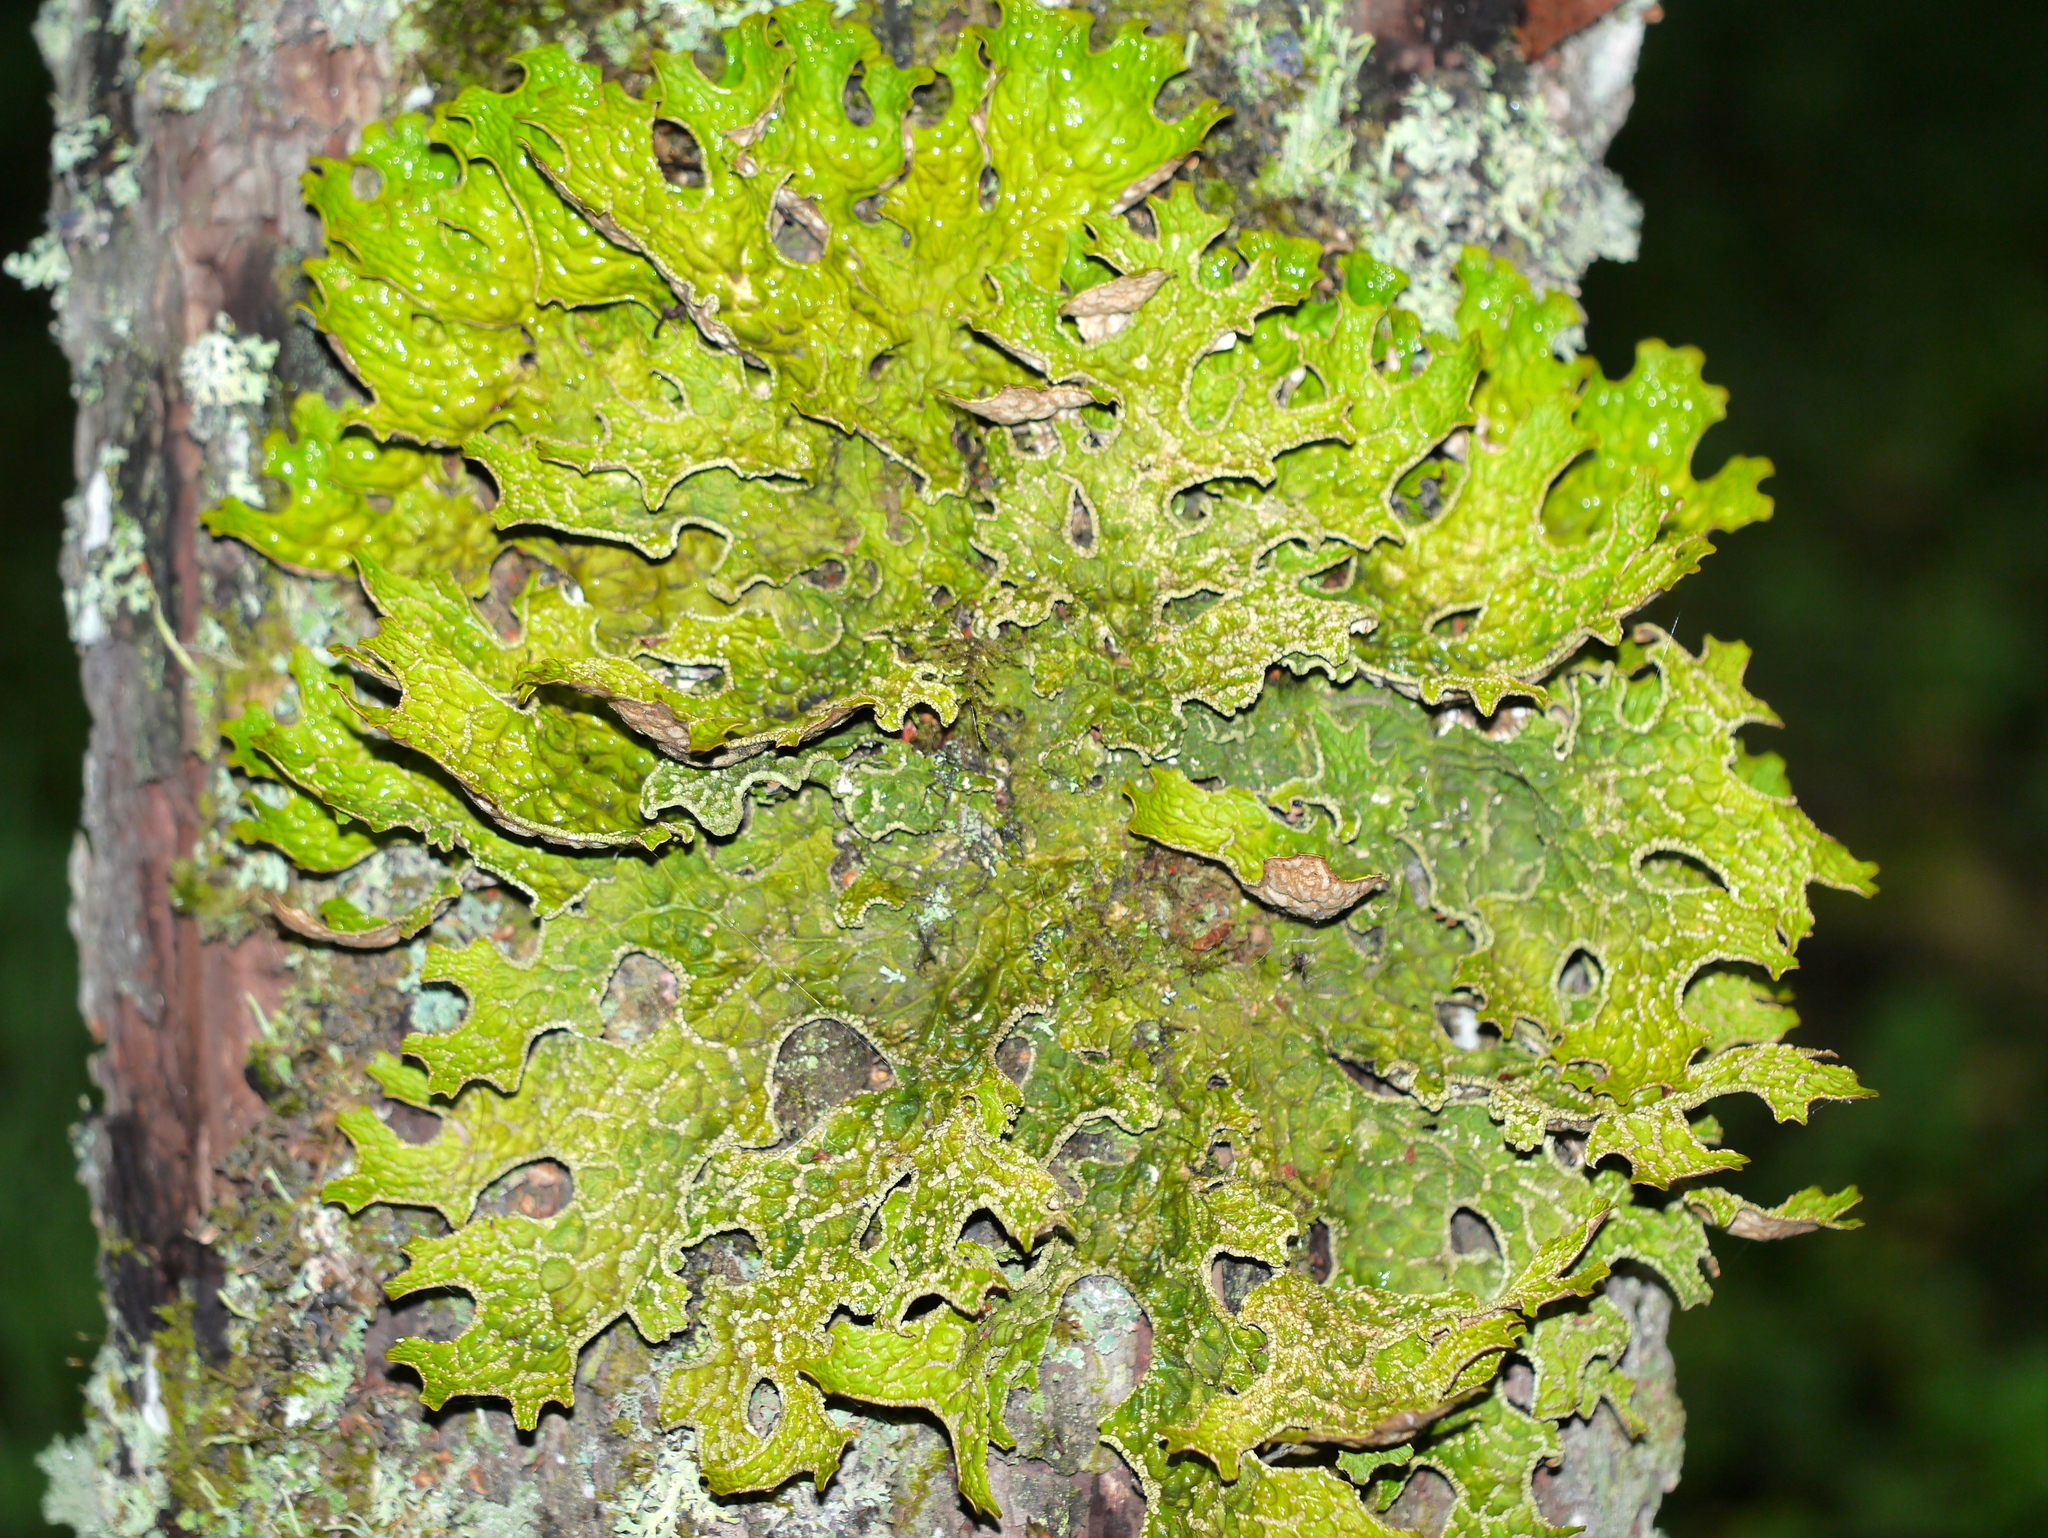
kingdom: Fungi
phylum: Ascomycota
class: Lecanoromycetes
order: Peltigerales
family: Lobariaceae
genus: Lobaria
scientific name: Lobaria pulmonaria
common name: Lungwort
